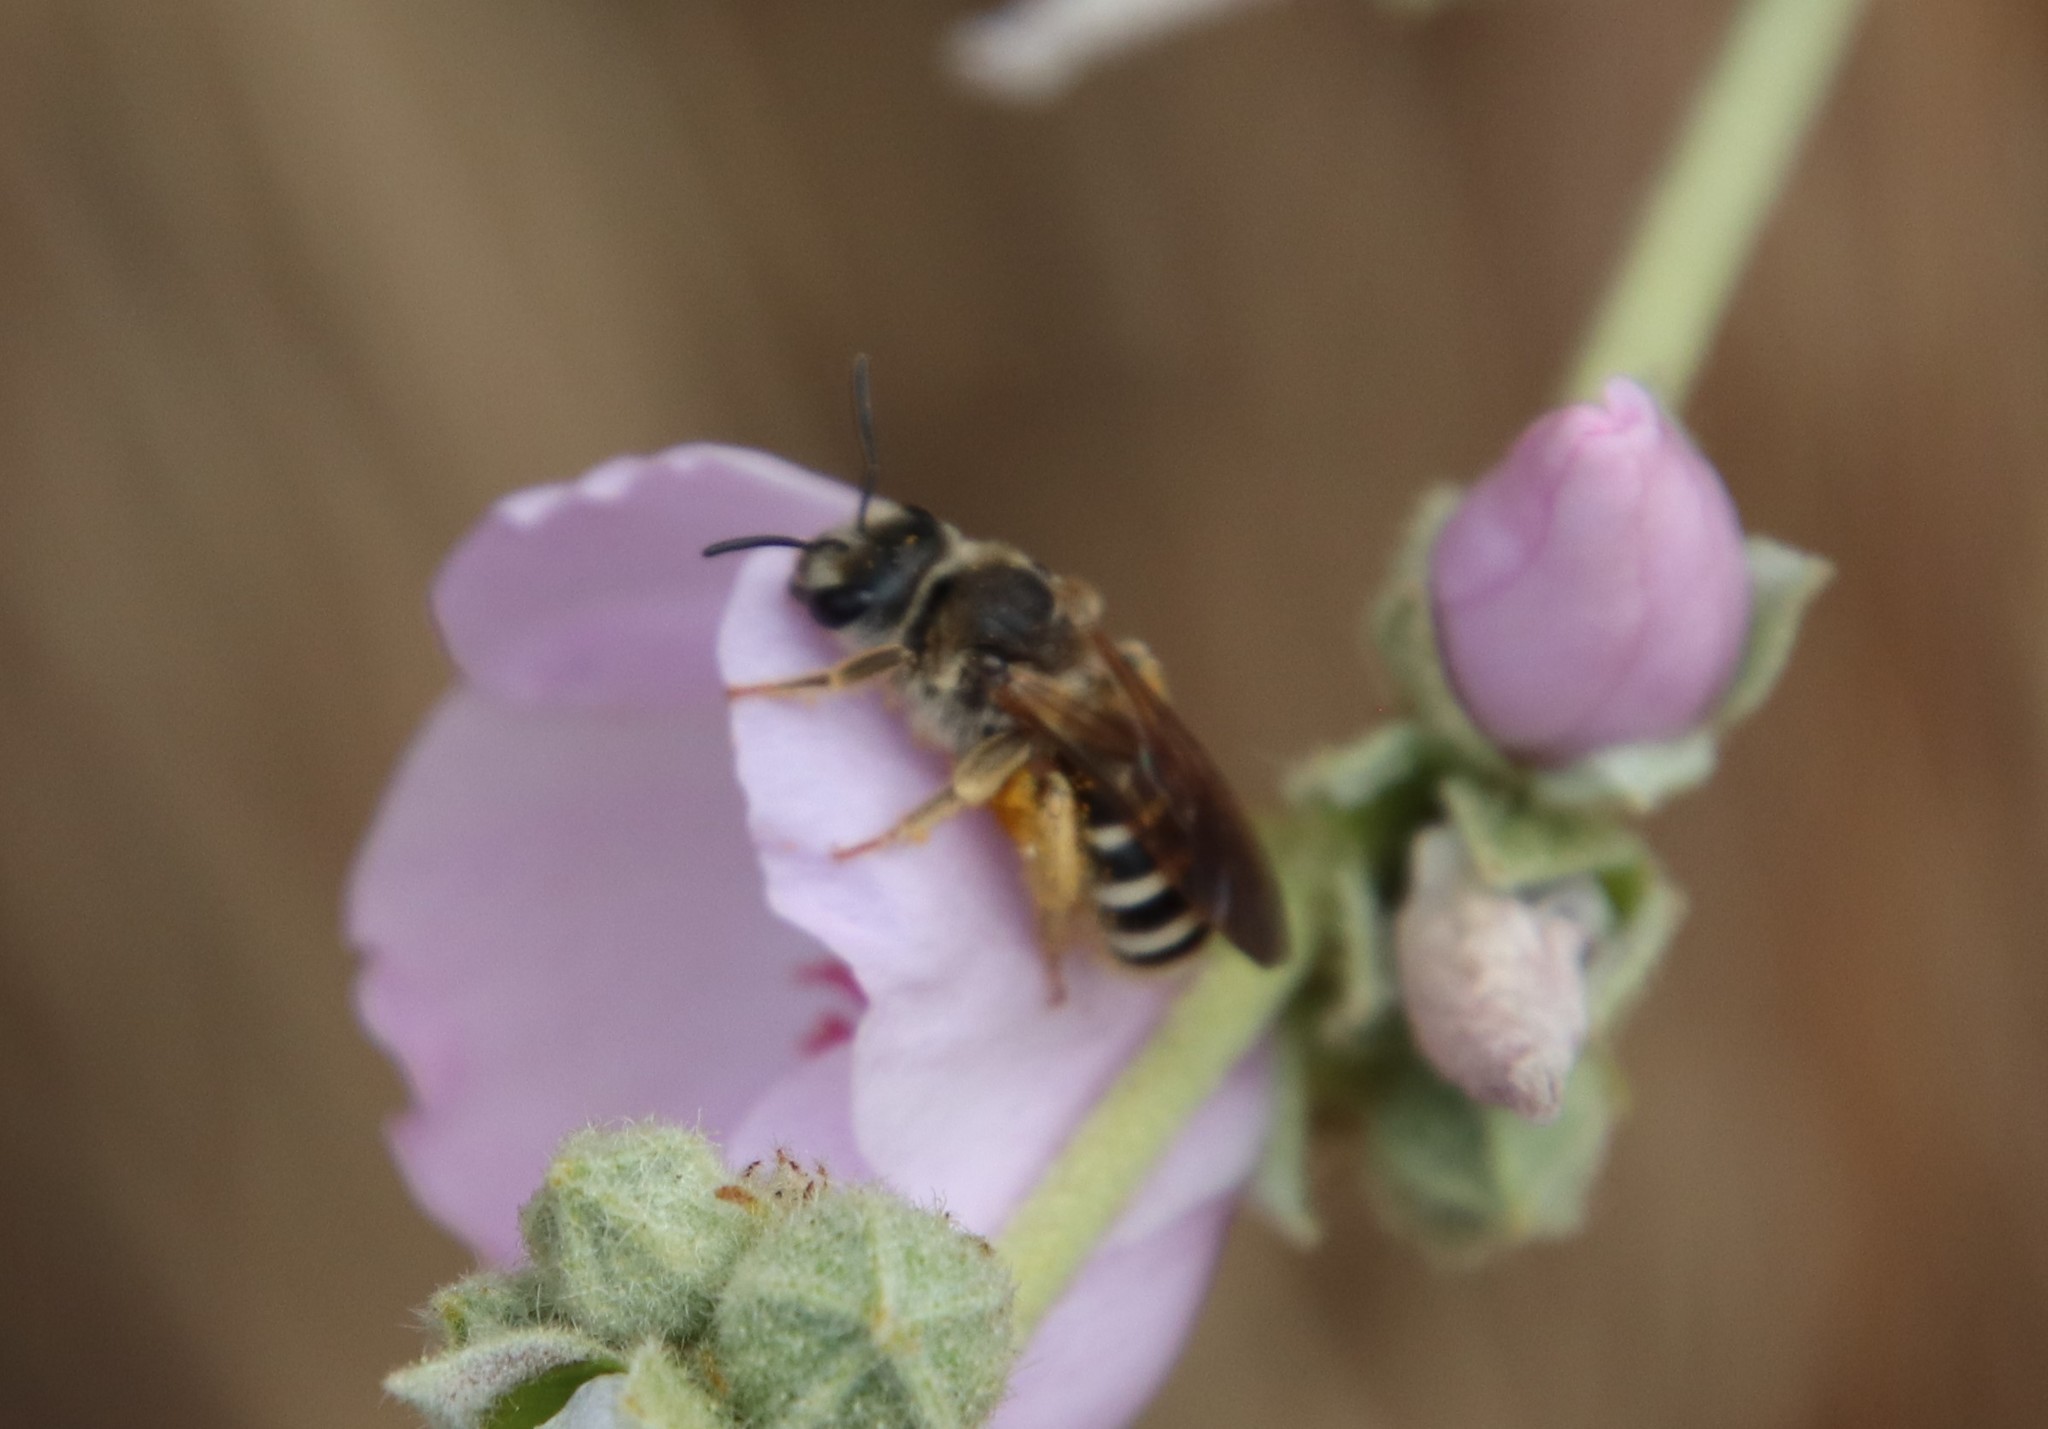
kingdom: Animalia
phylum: Arthropoda
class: Insecta
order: Hymenoptera
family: Halictidae
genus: Halictus
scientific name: Halictus farinosus
